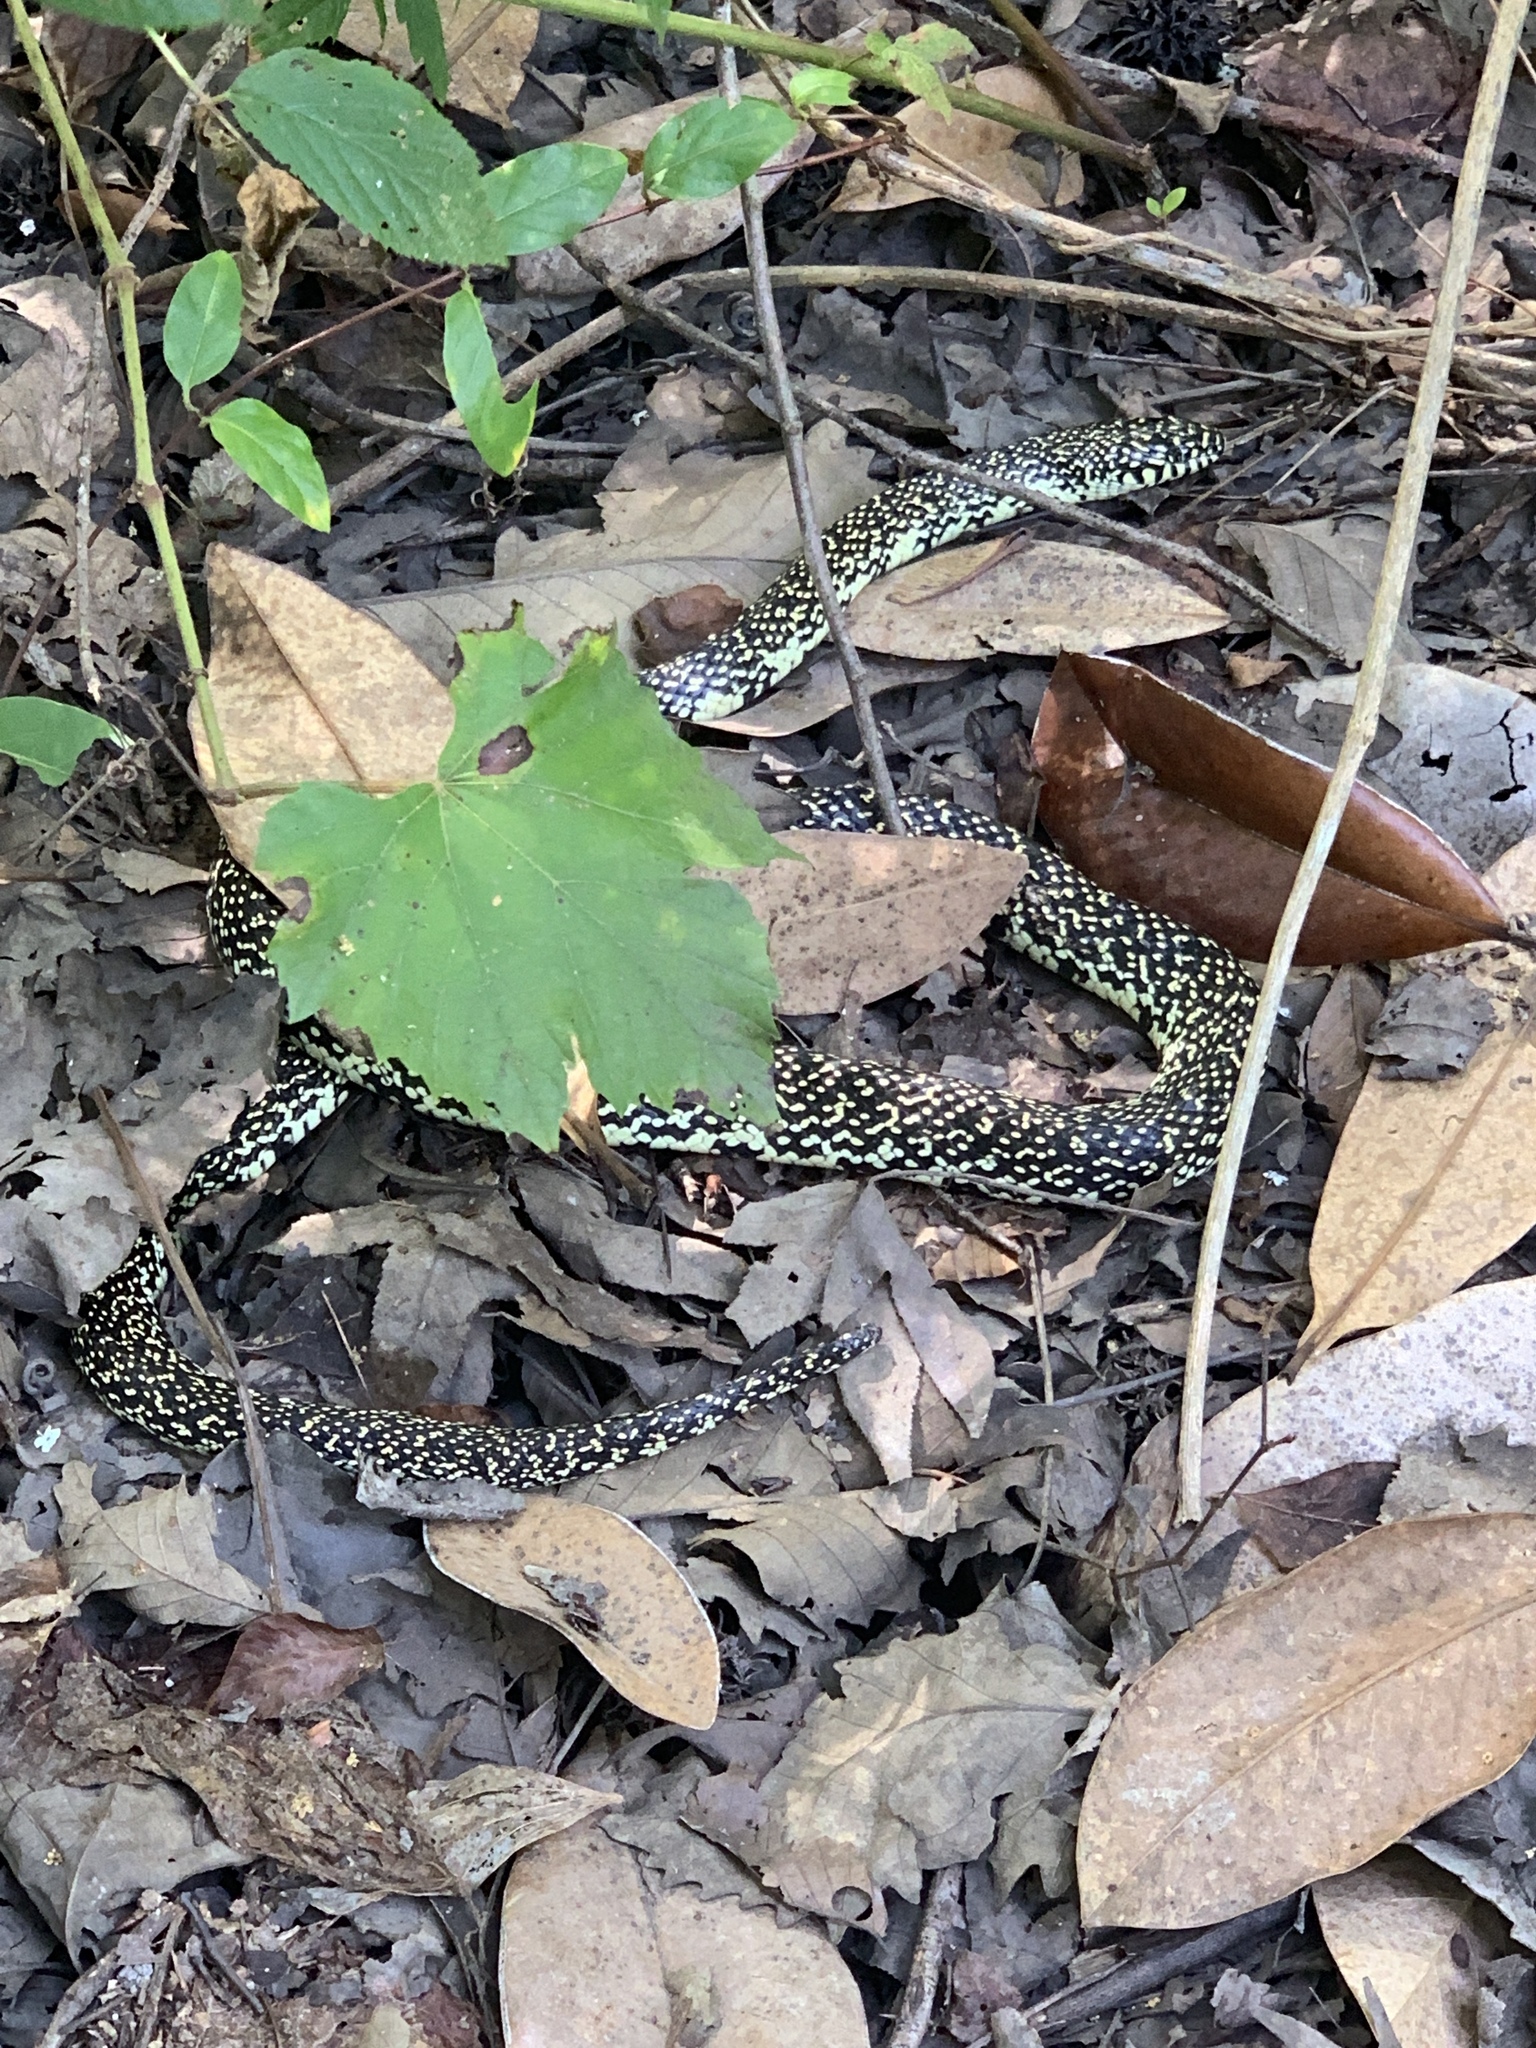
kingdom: Animalia
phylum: Chordata
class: Squamata
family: Colubridae
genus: Lampropeltis
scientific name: Lampropeltis holbrooki
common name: Speckled kingsnake
